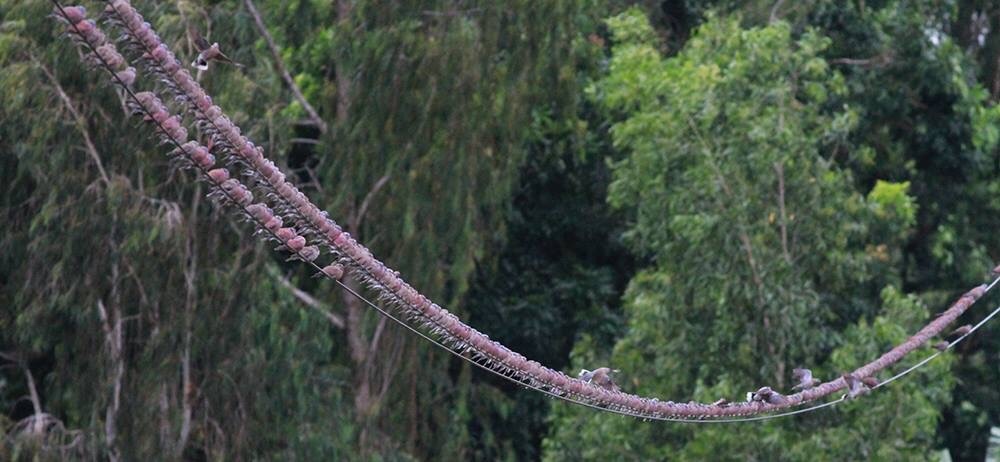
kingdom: Animalia
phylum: Chordata
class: Aves
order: Columbiformes
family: Columbidae
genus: Streptopelia
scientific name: Streptopelia tranquebarica
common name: Red turtle dove
